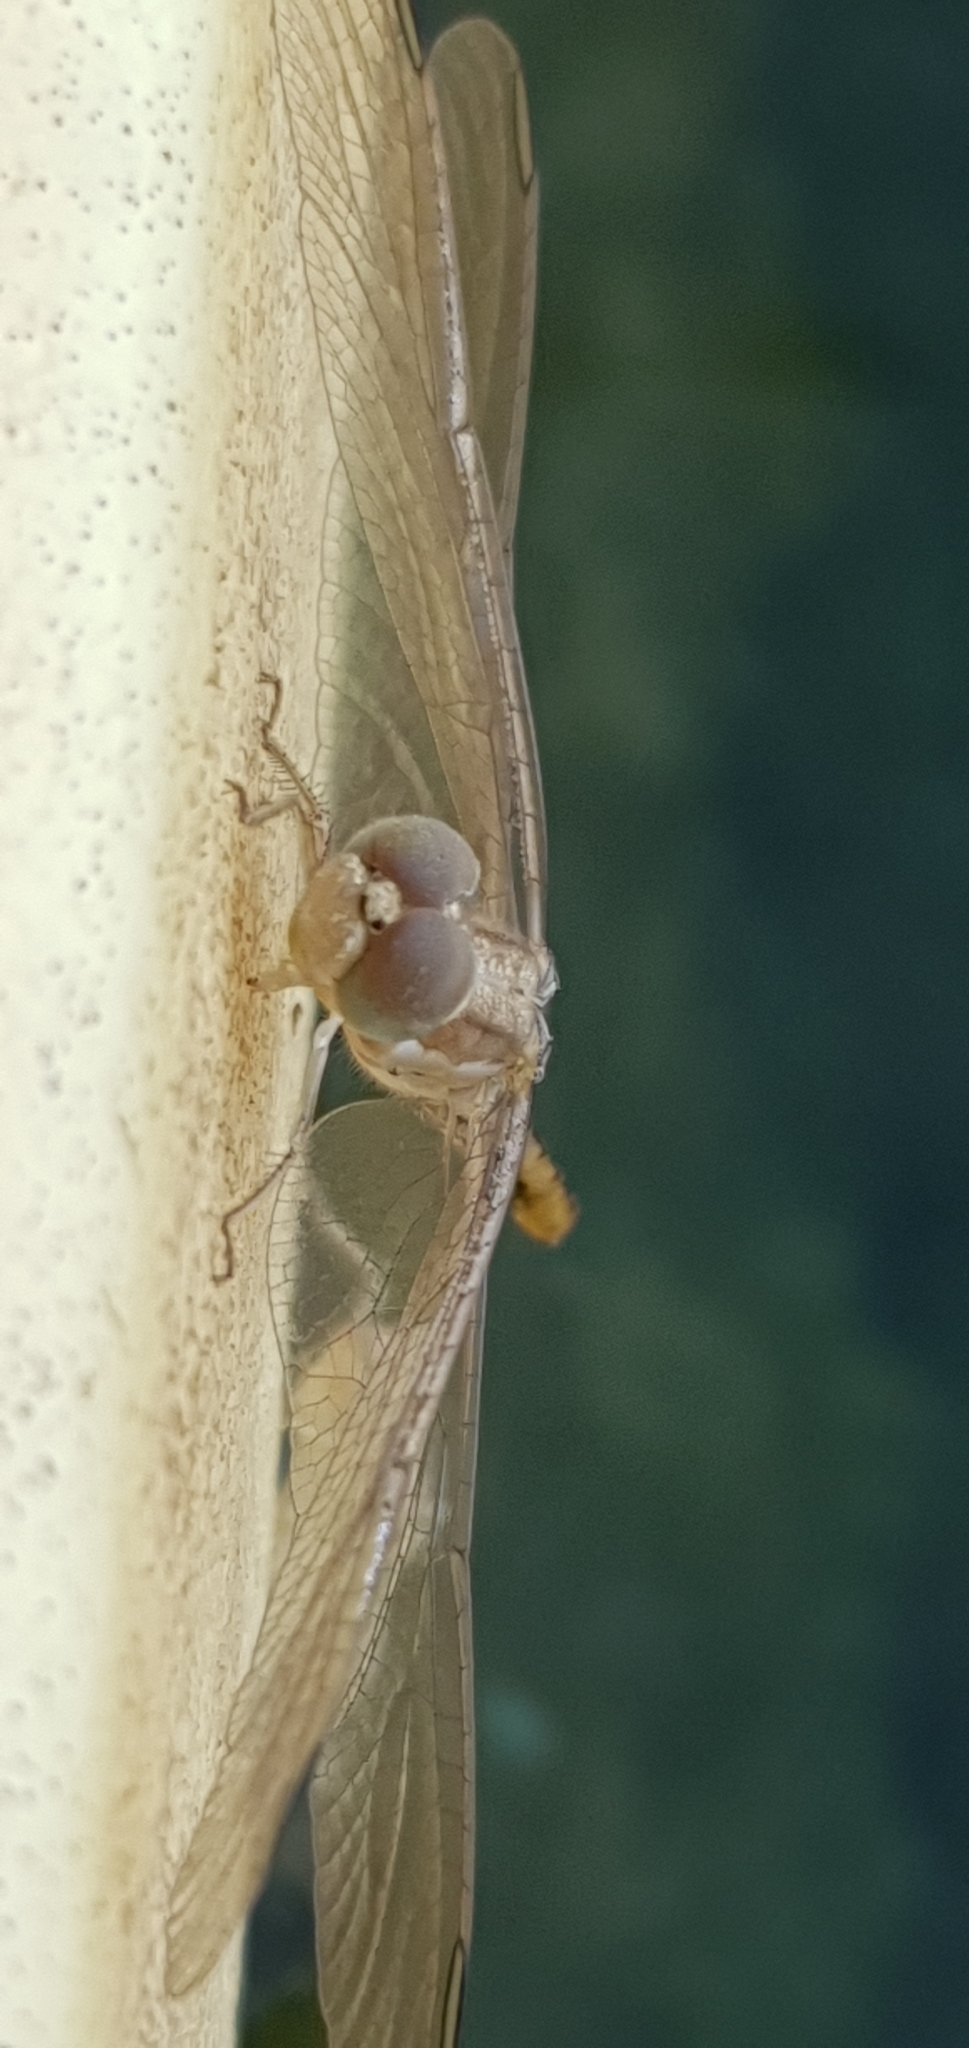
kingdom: Animalia
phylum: Arthropoda
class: Insecta
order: Odonata
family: Libellulidae
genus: Diplacodes
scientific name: Diplacodes haematodes
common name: Scarlet percher
